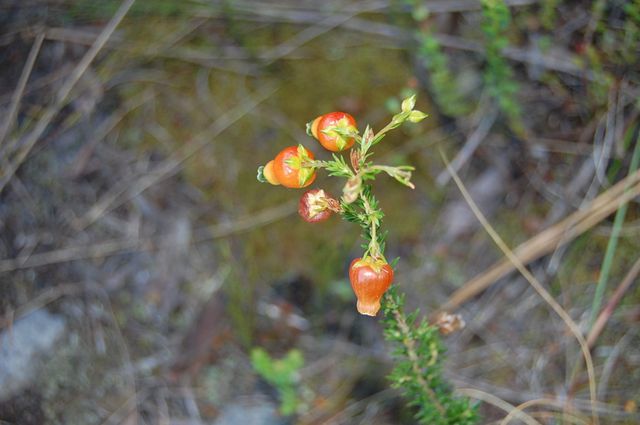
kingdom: Plantae
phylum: Tracheophyta
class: Magnoliopsida
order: Ericales
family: Ericaceae
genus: Erica
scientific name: Erica blenna
